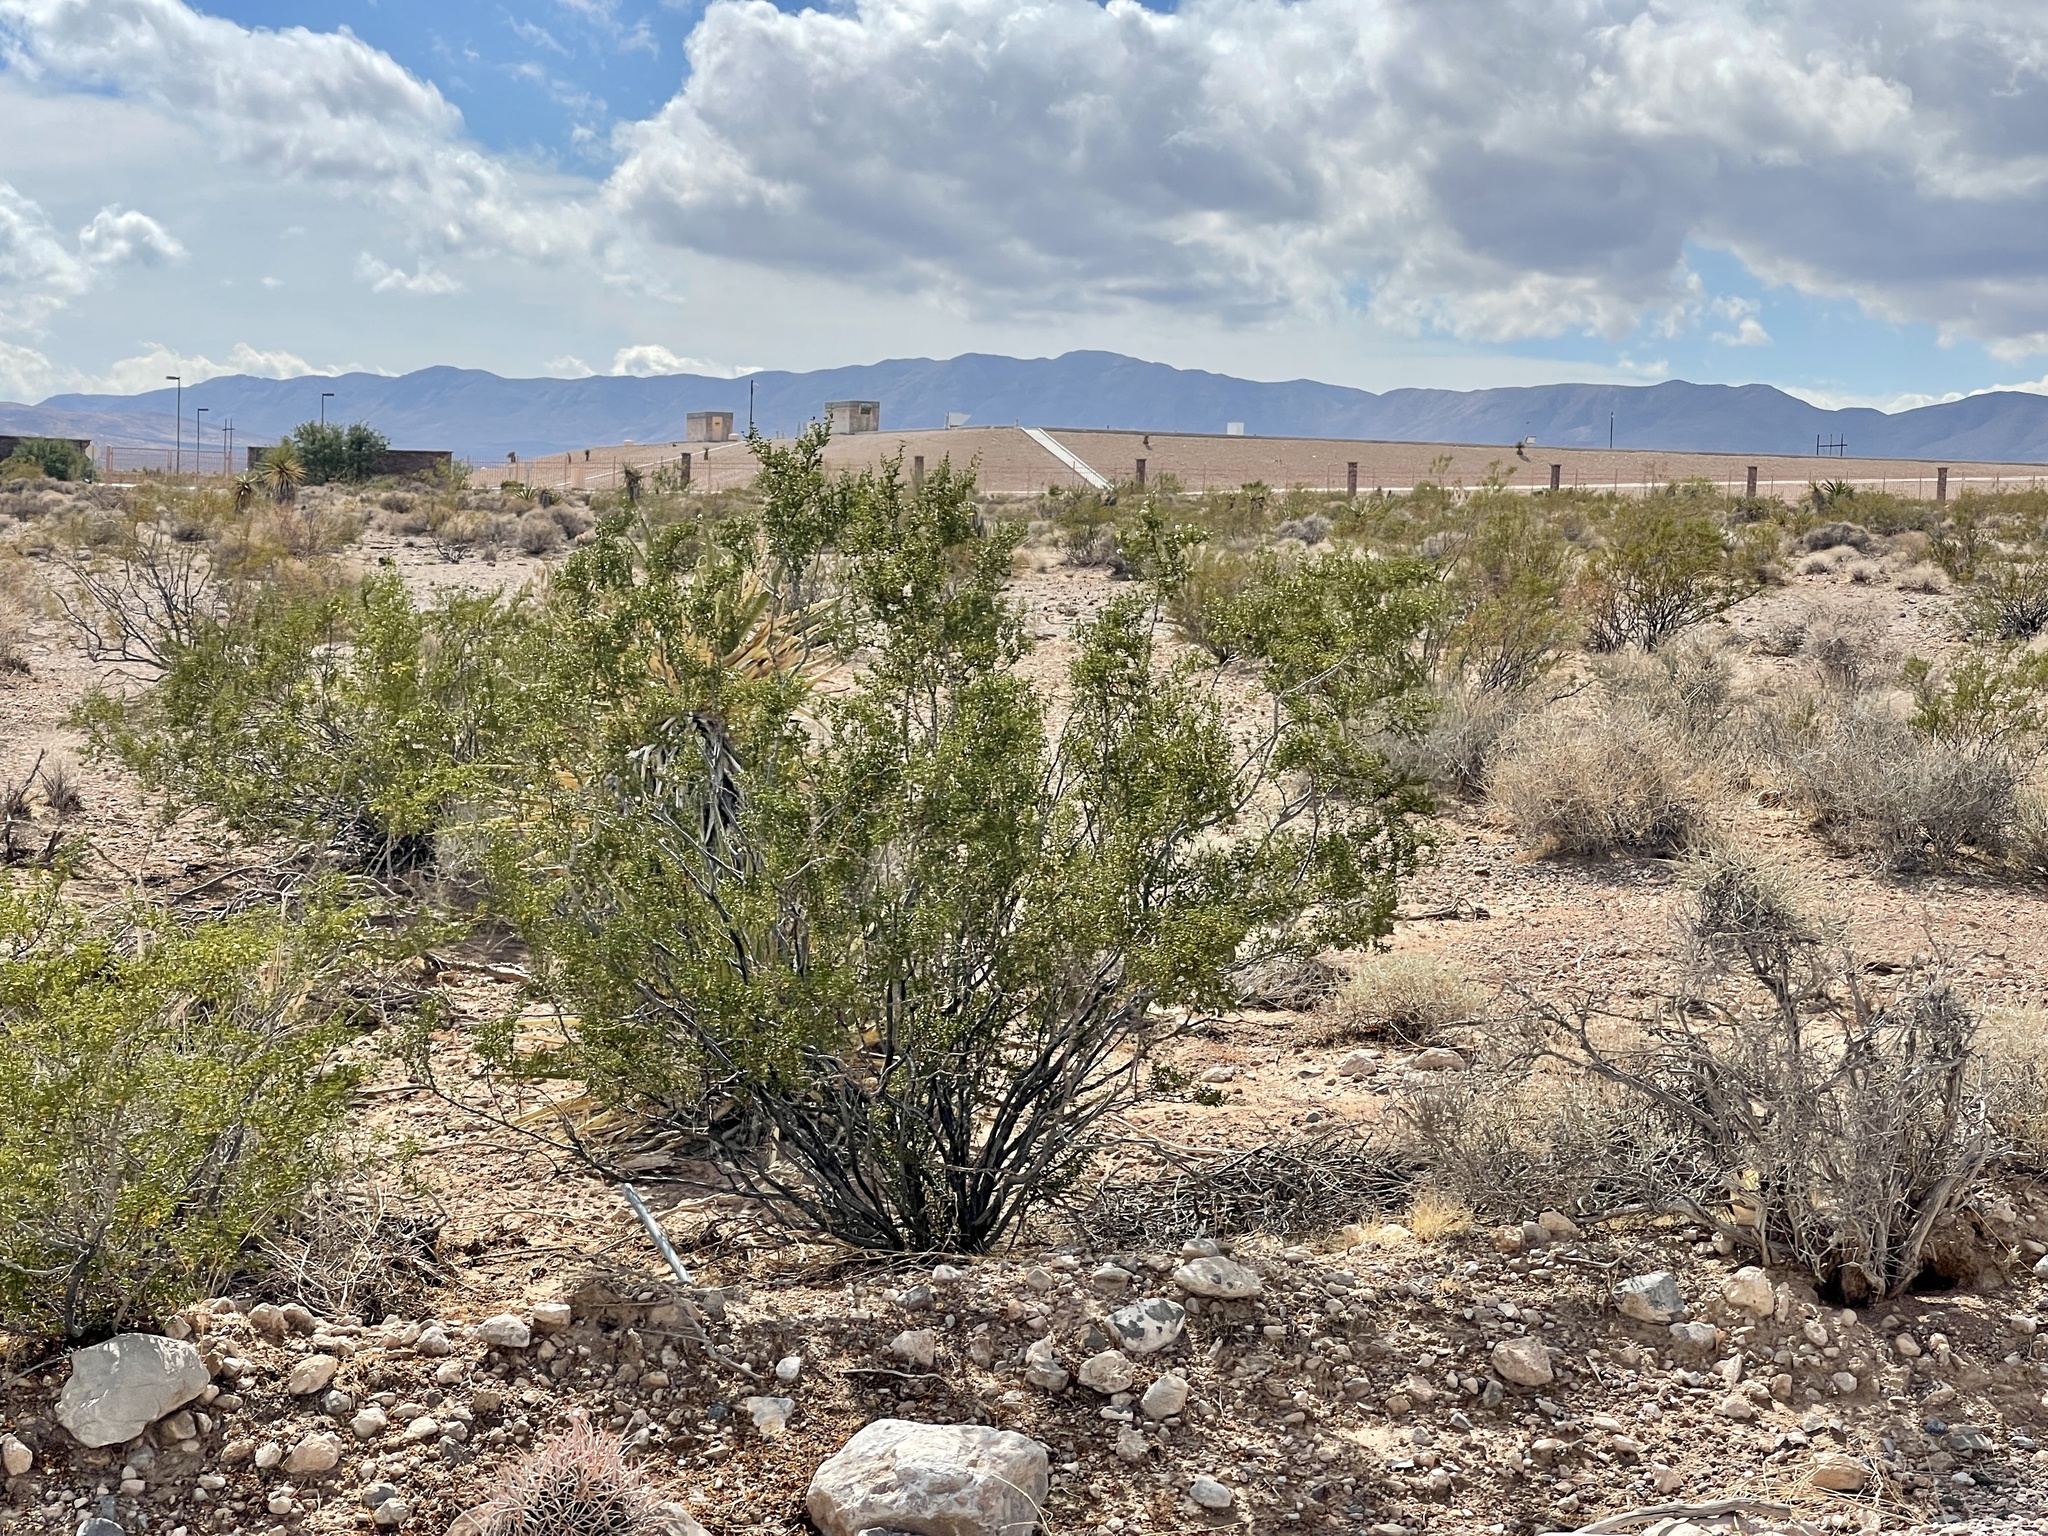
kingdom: Plantae
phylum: Tracheophyta
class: Magnoliopsida
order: Zygophyllales
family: Zygophyllaceae
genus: Larrea
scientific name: Larrea tridentata
